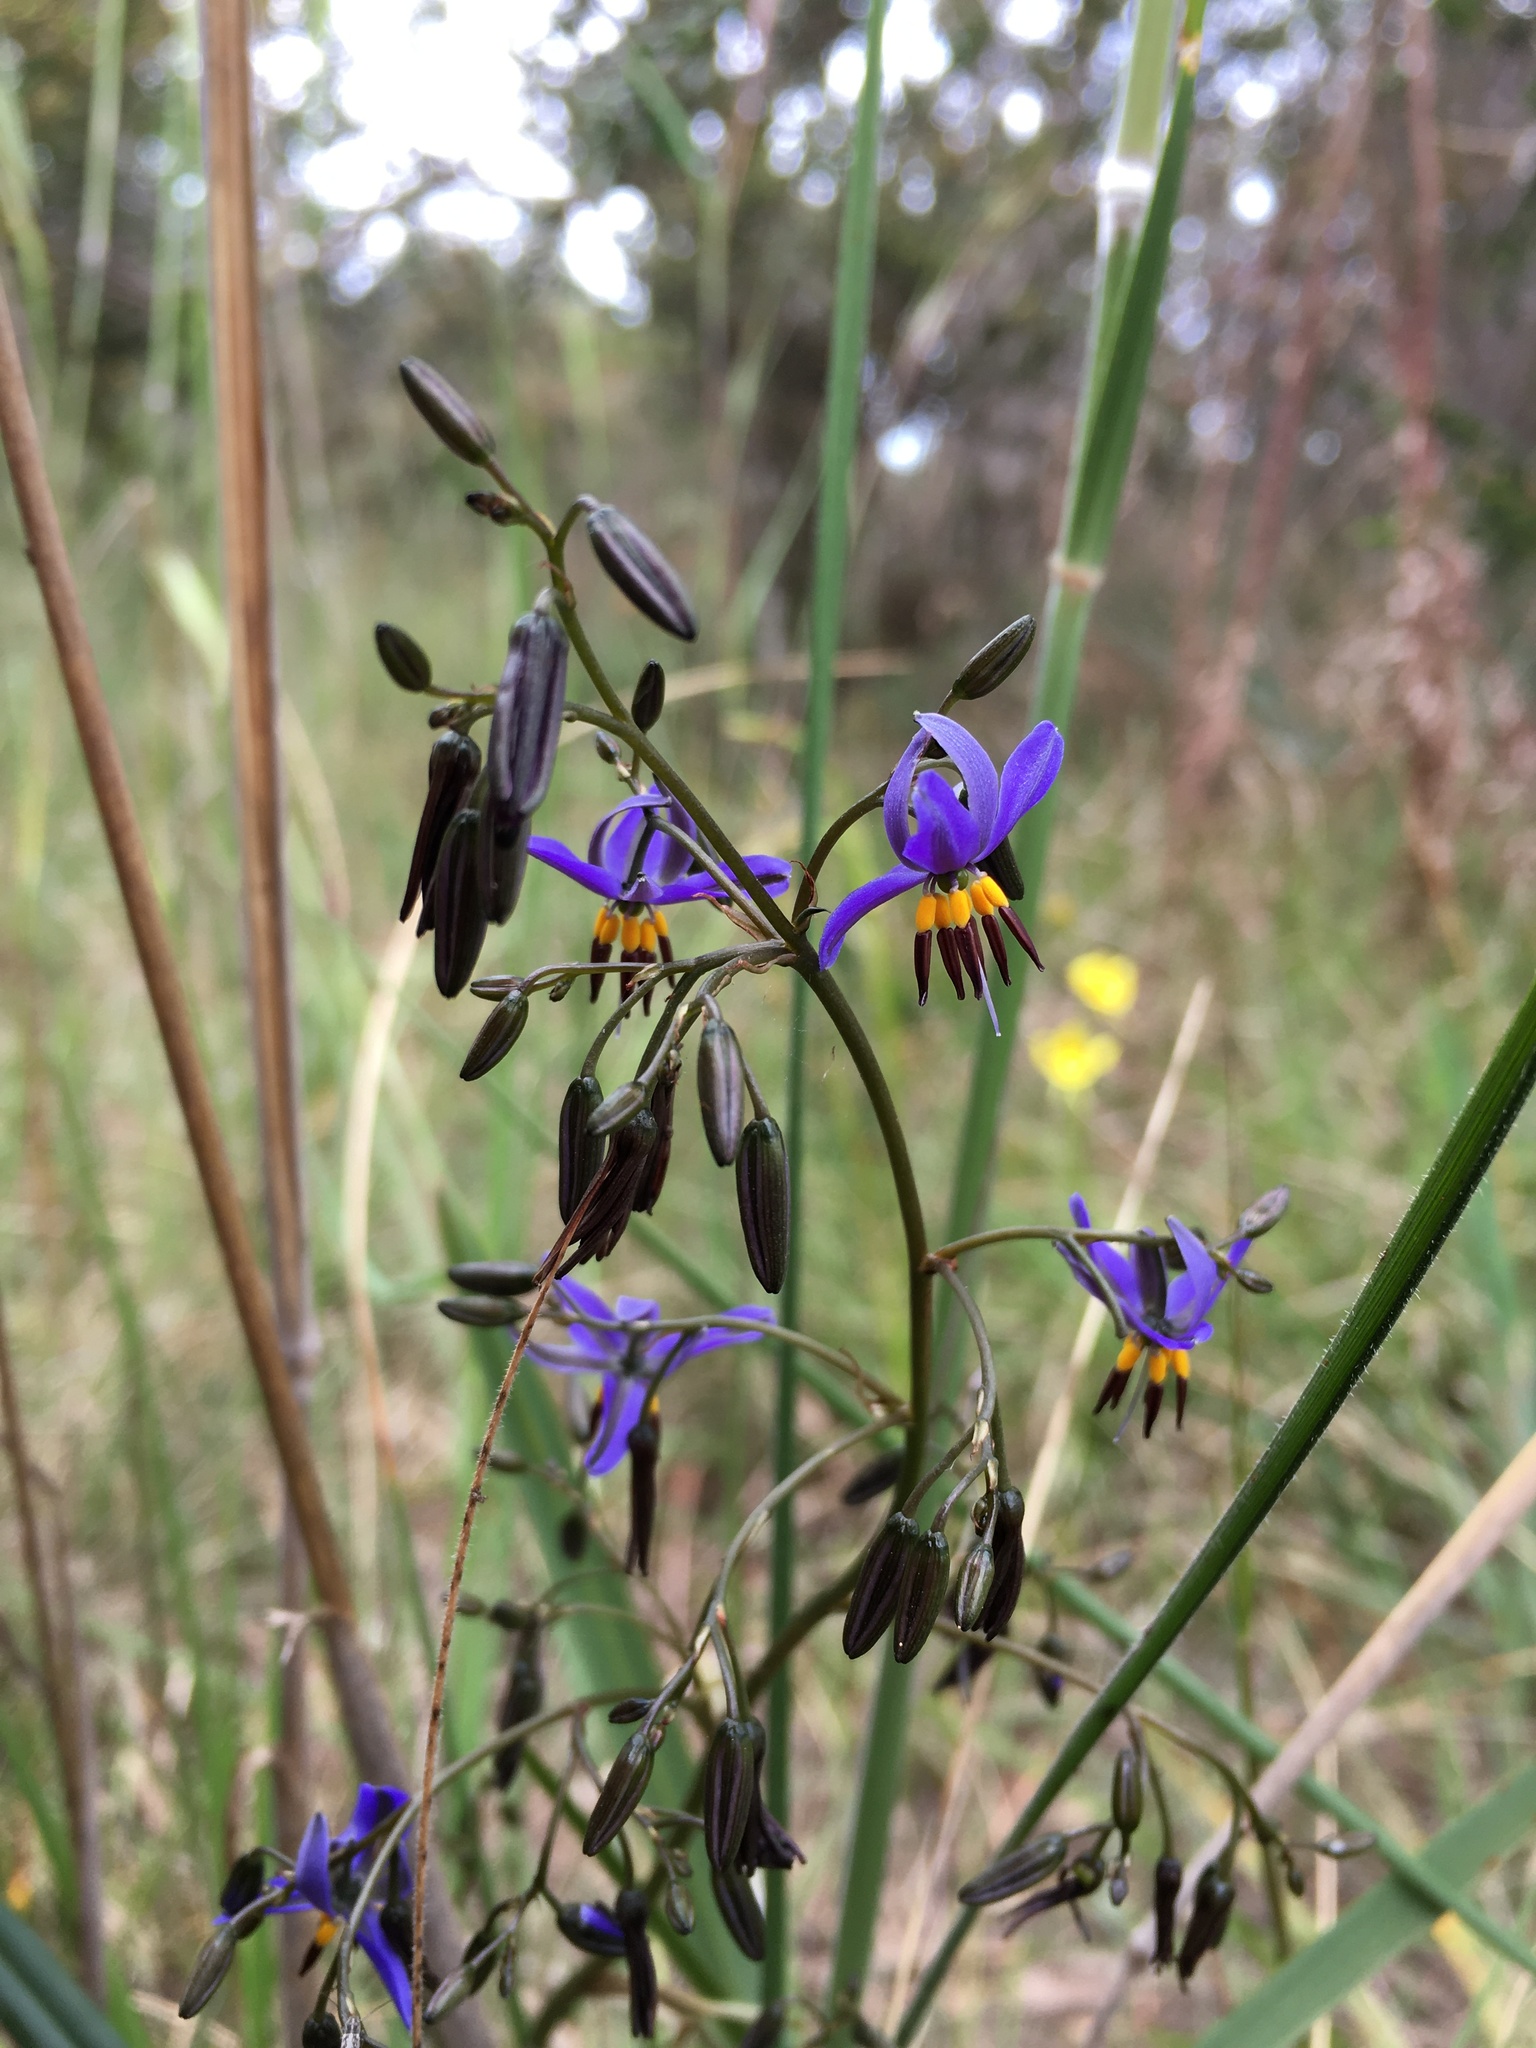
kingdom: Plantae
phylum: Tracheophyta
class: Liliopsida
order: Asparagales
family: Asphodelaceae
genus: Dianella
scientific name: Dianella revoluta
